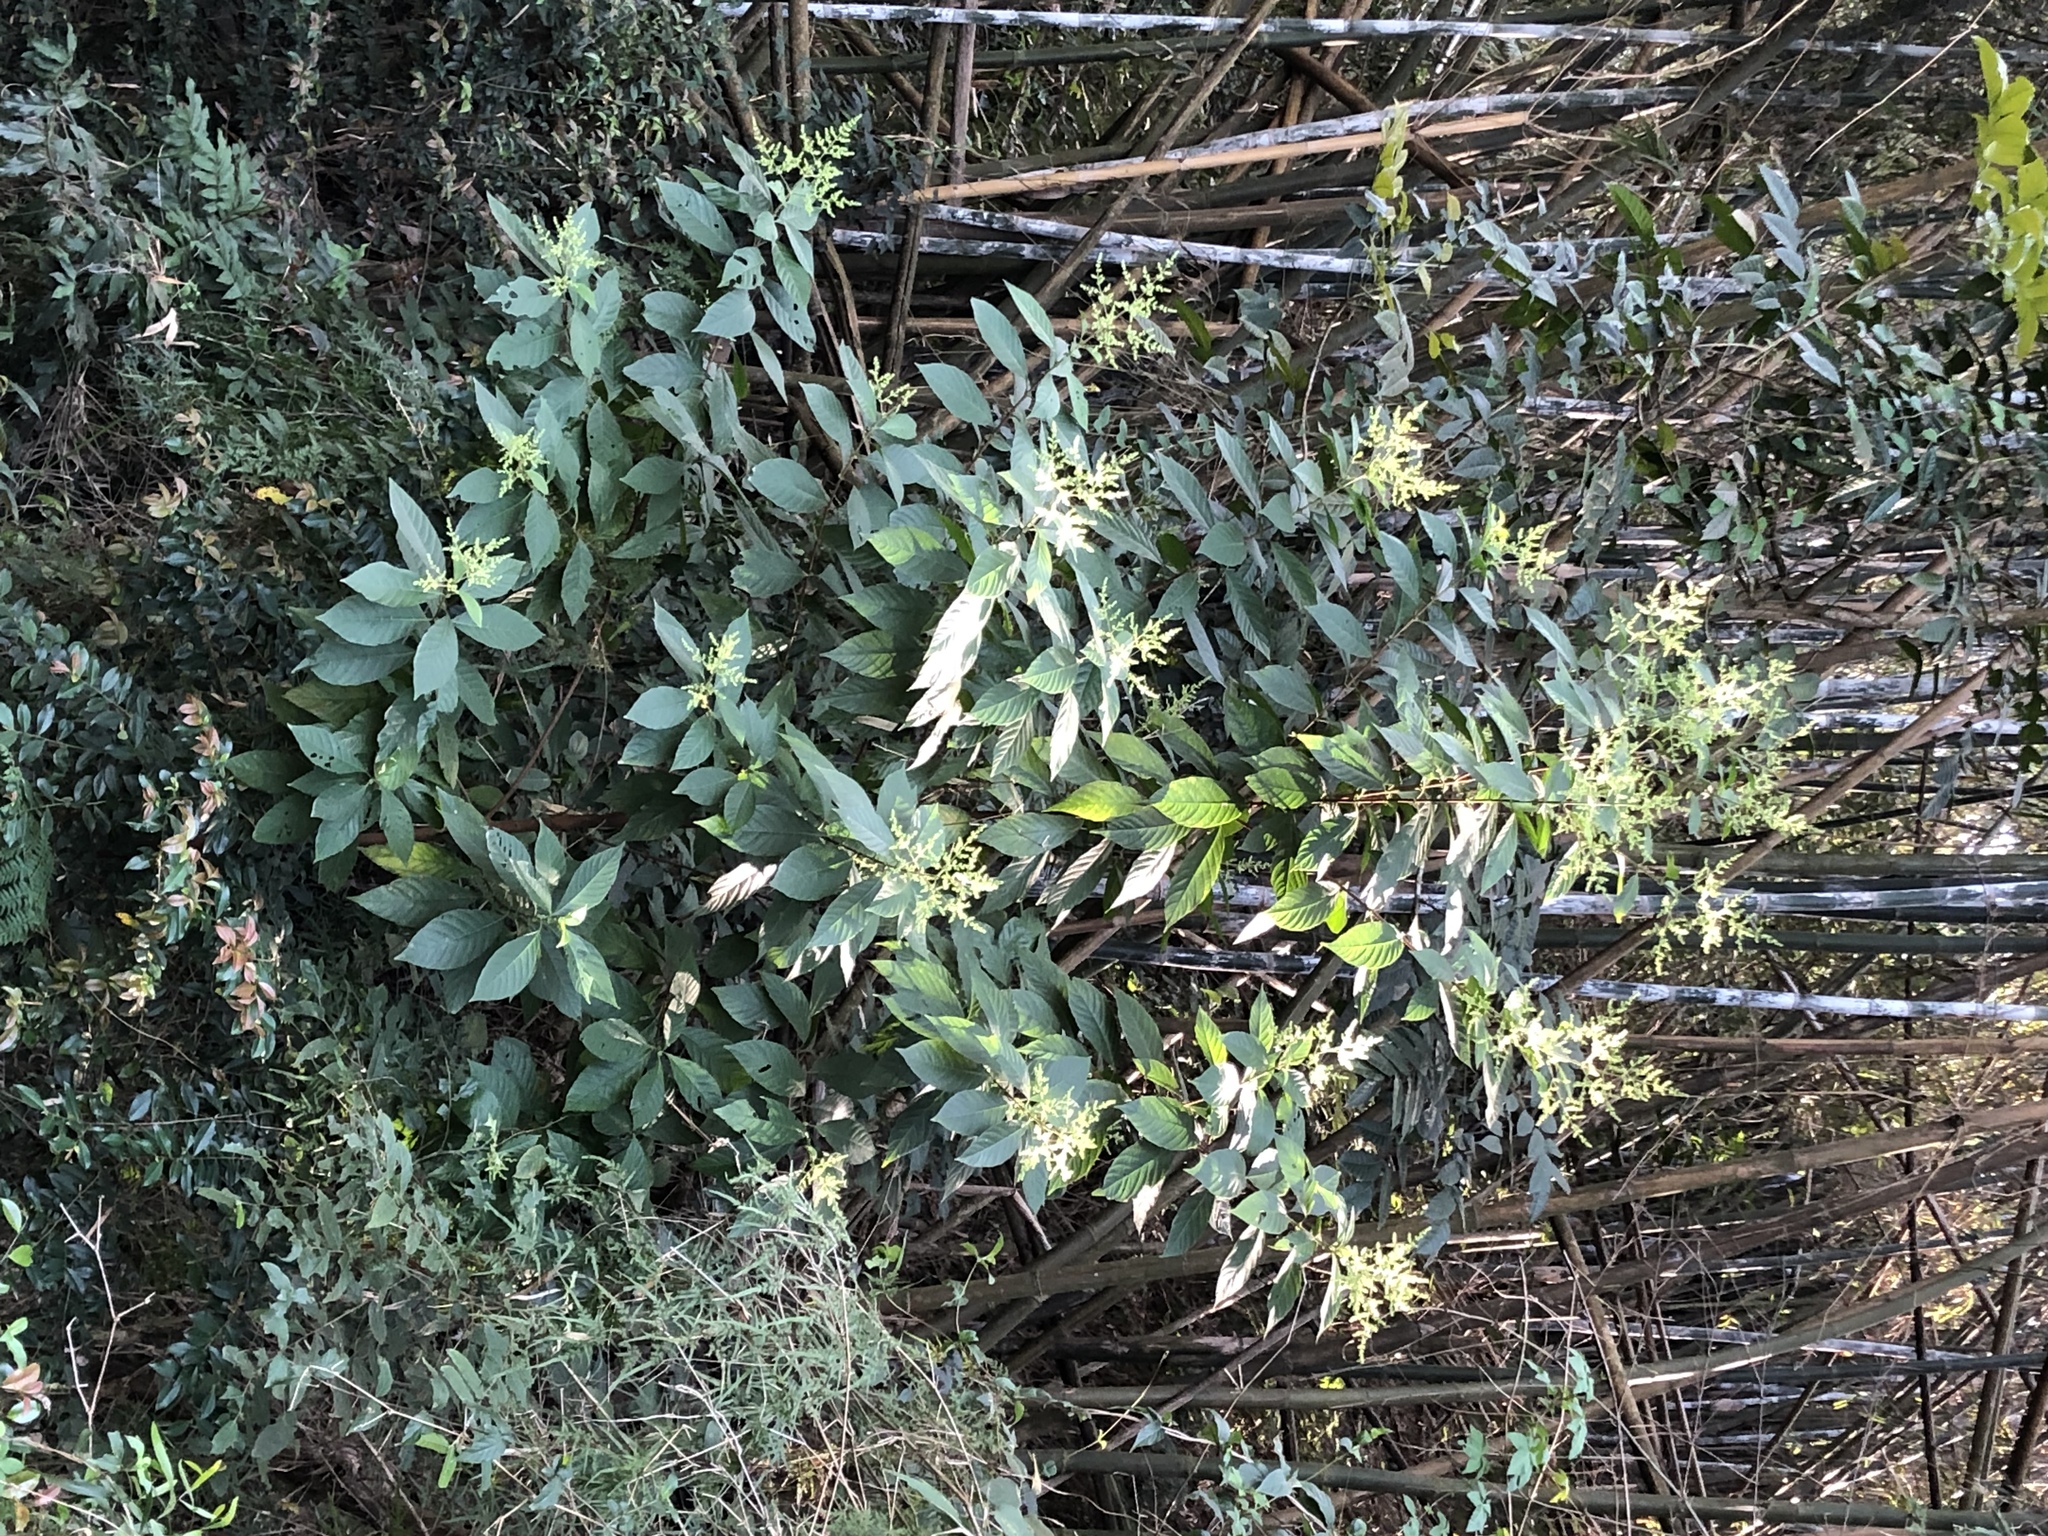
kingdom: Plantae
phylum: Tracheophyta
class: Magnoliopsida
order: Gentianales
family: Rubiaceae
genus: Wendlandia
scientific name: Wendlandia uvariifolia
